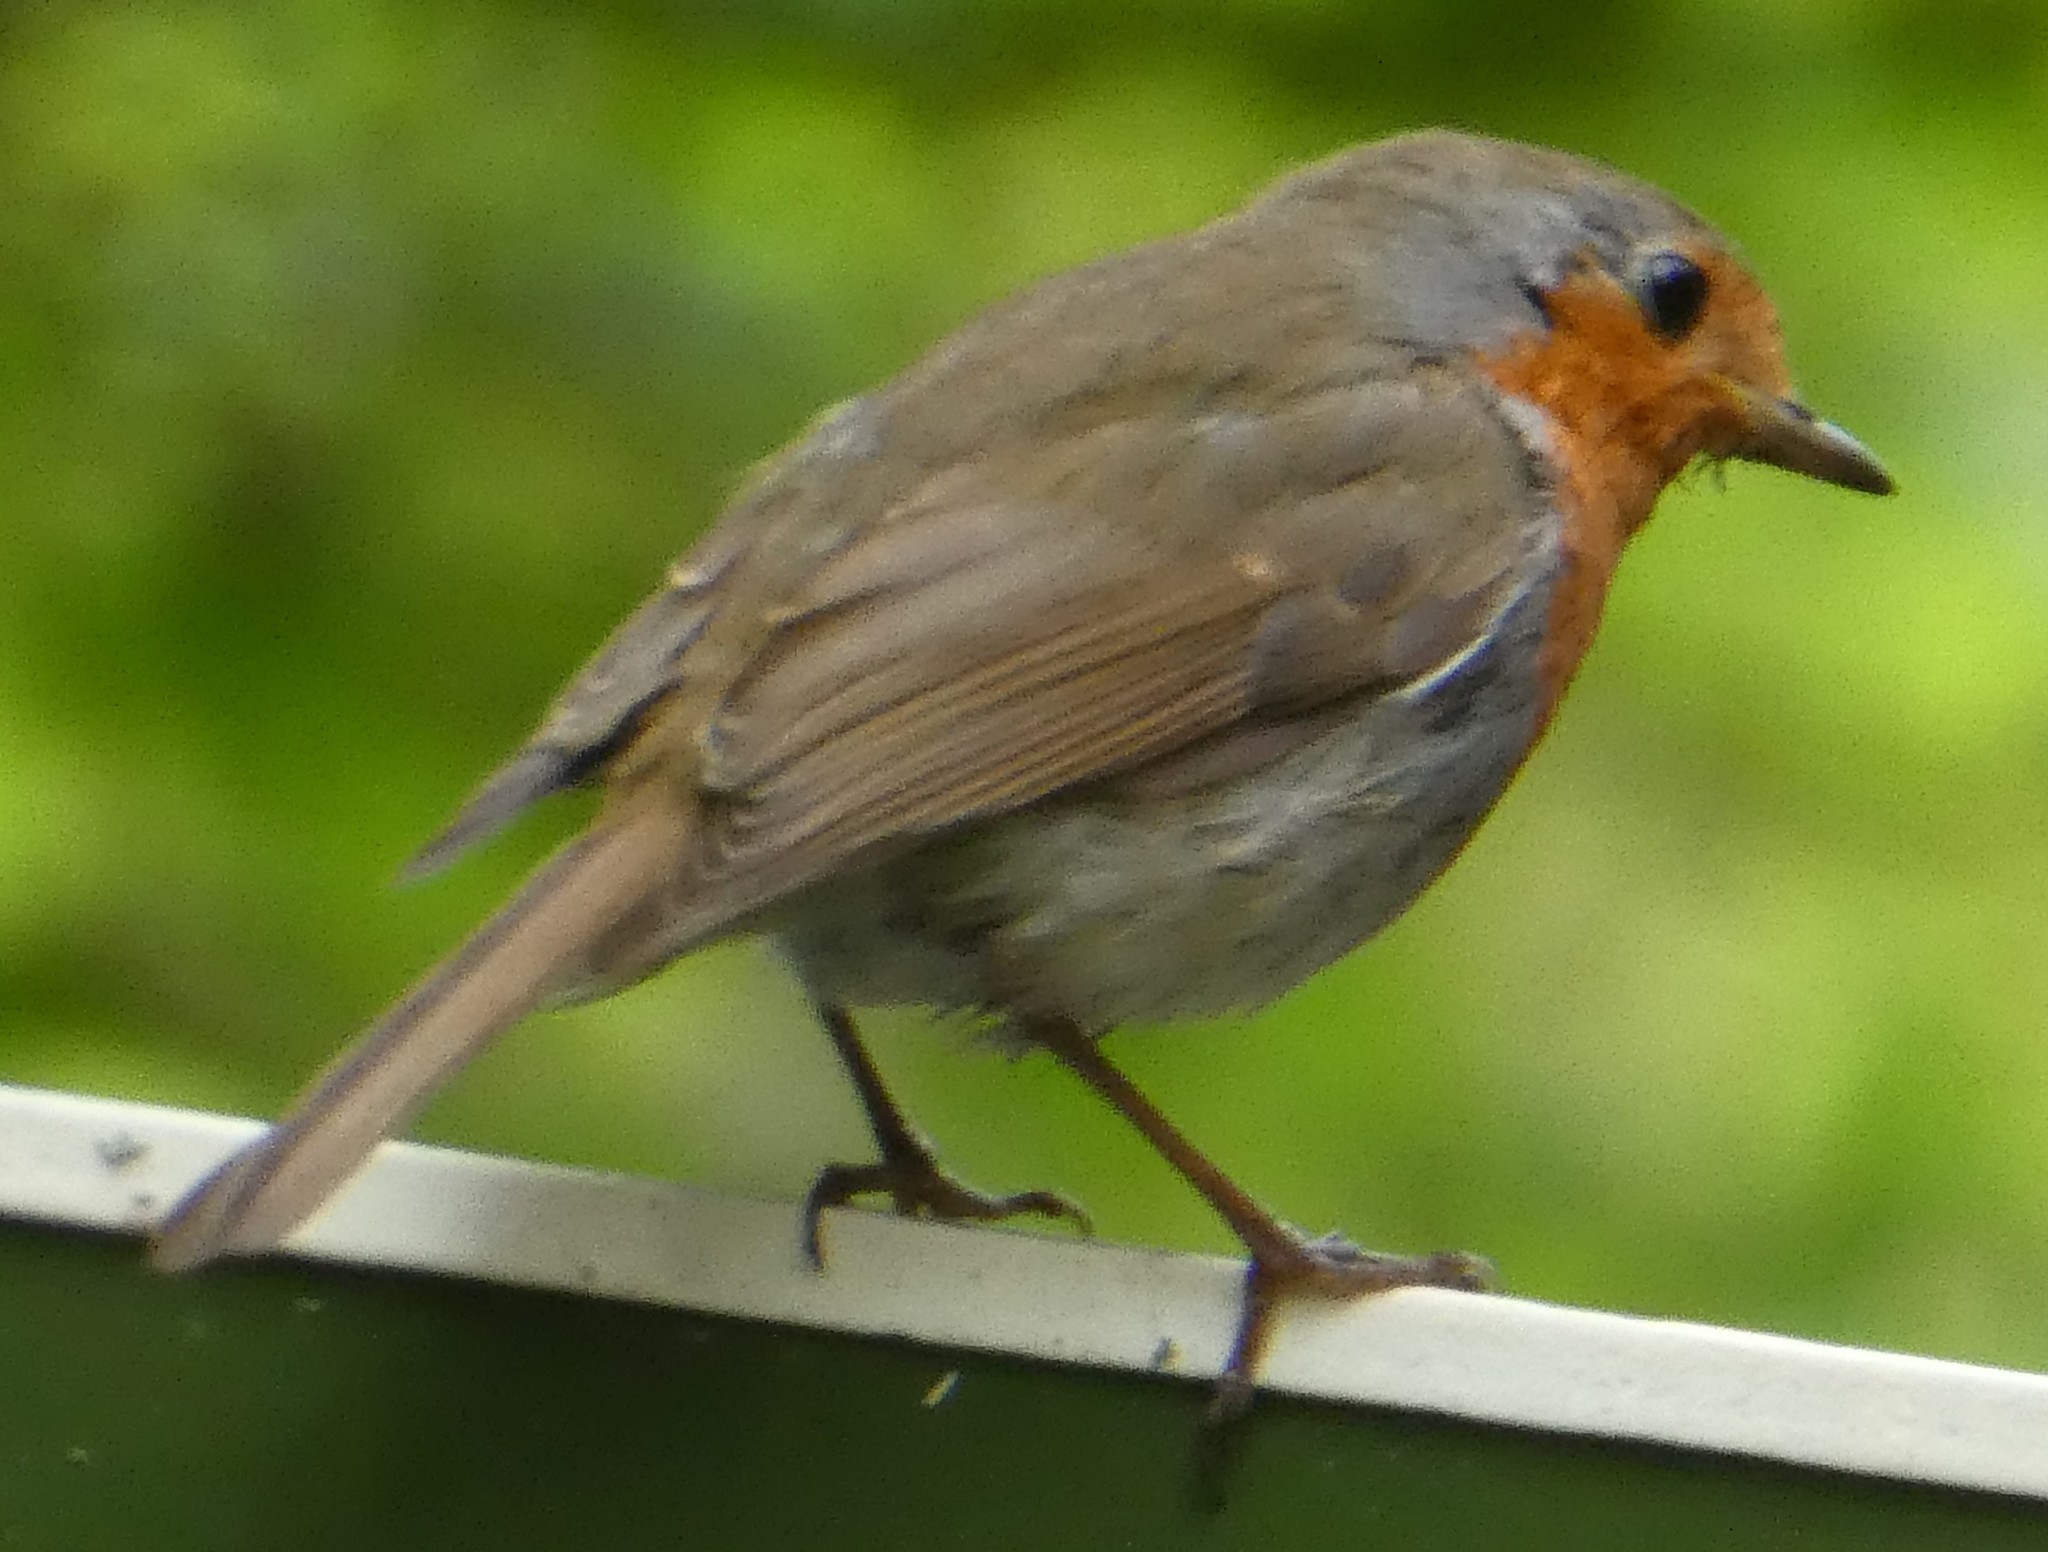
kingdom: Animalia
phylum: Chordata
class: Aves
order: Passeriformes
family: Muscicapidae
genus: Erithacus
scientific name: Erithacus rubecula
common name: European robin
